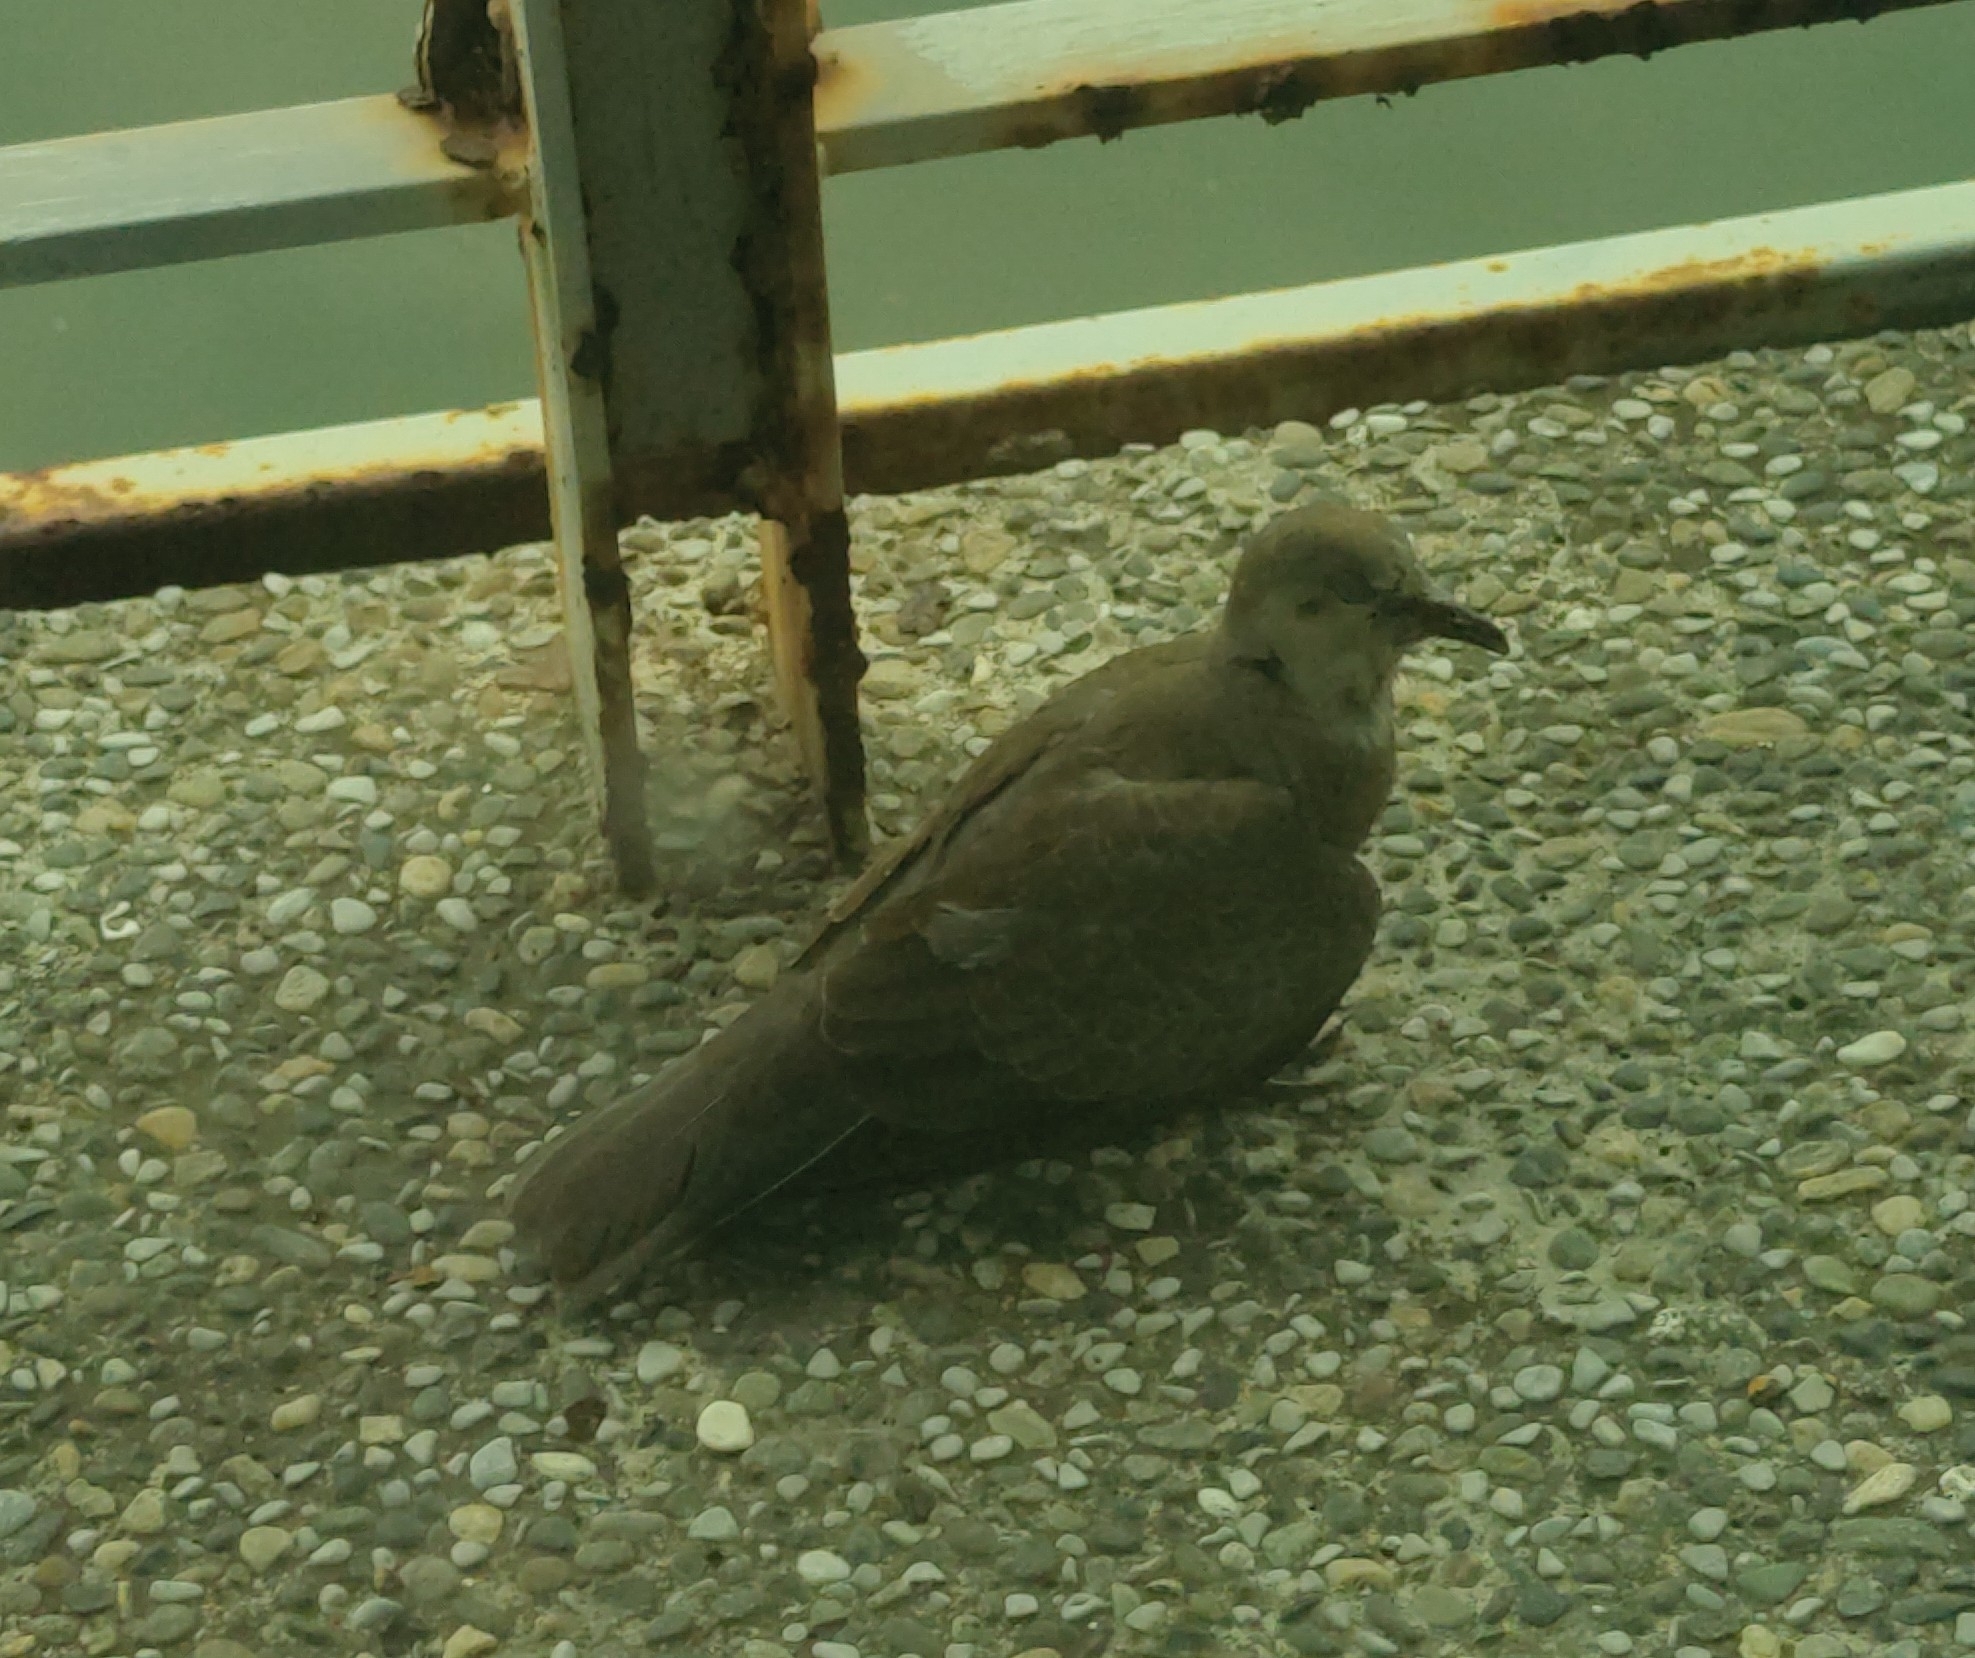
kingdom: Animalia
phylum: Chordata
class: Aves
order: Columbiformes
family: Columbidae
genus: Streptopelia
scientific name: Streptopelia tranquebarica
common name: Red turtle dove
